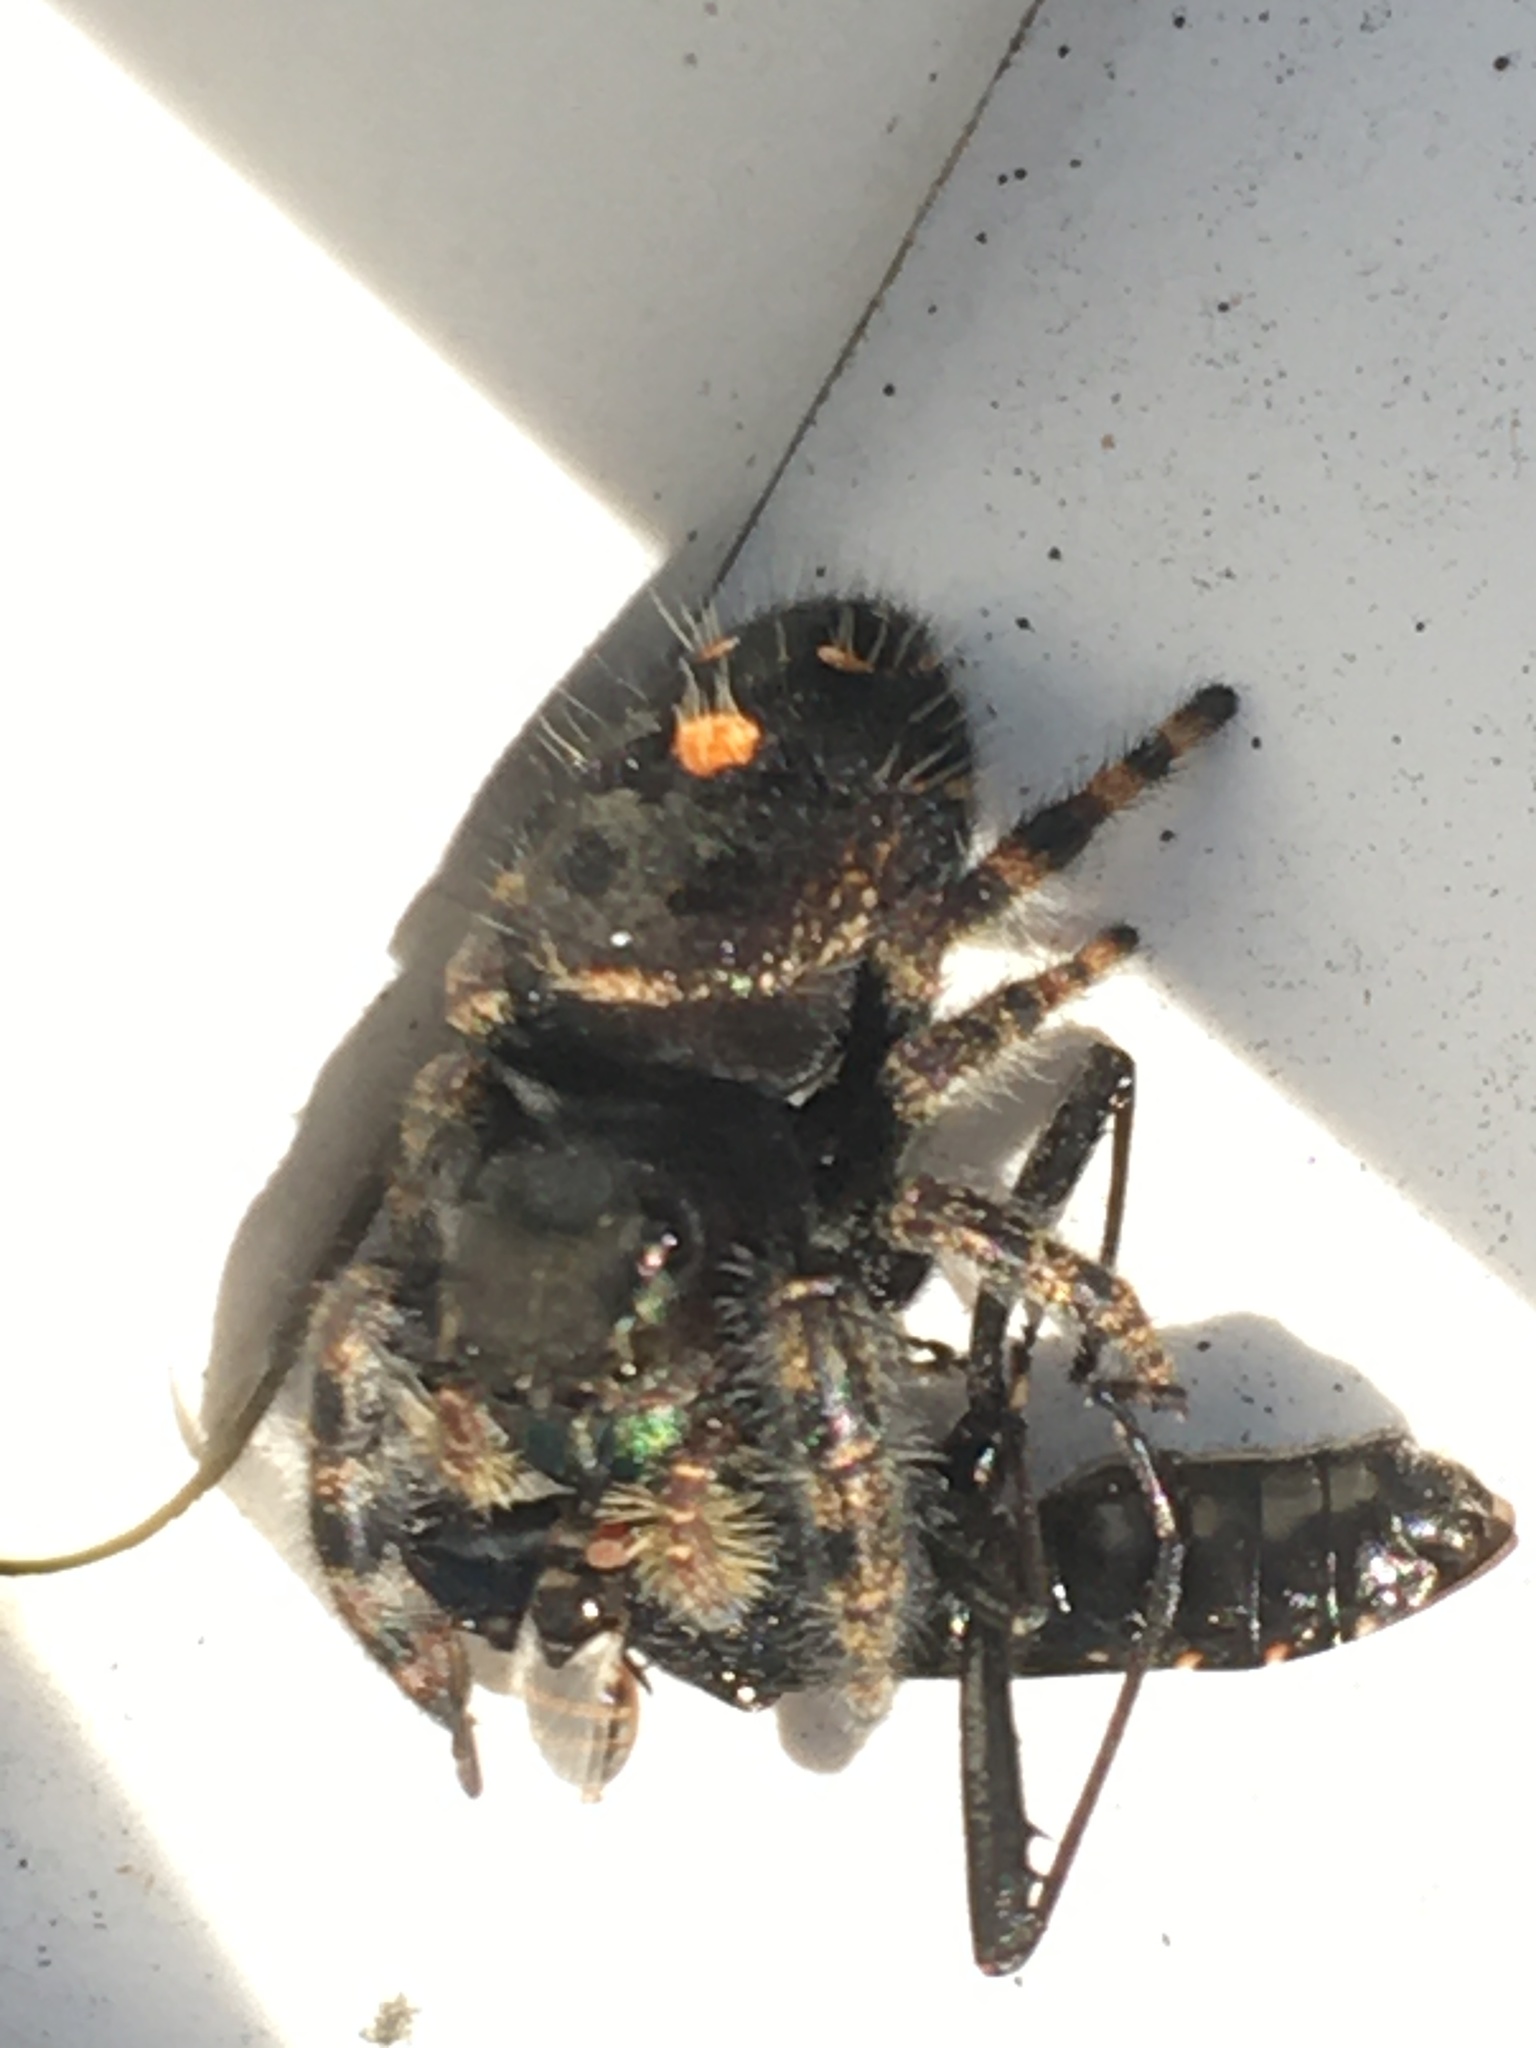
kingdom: Animalia
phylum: Arthropoda
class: Arachnida
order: Araneae
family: Salticidae
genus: Phidippus
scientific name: Phidippus audax
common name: Bold jumper
